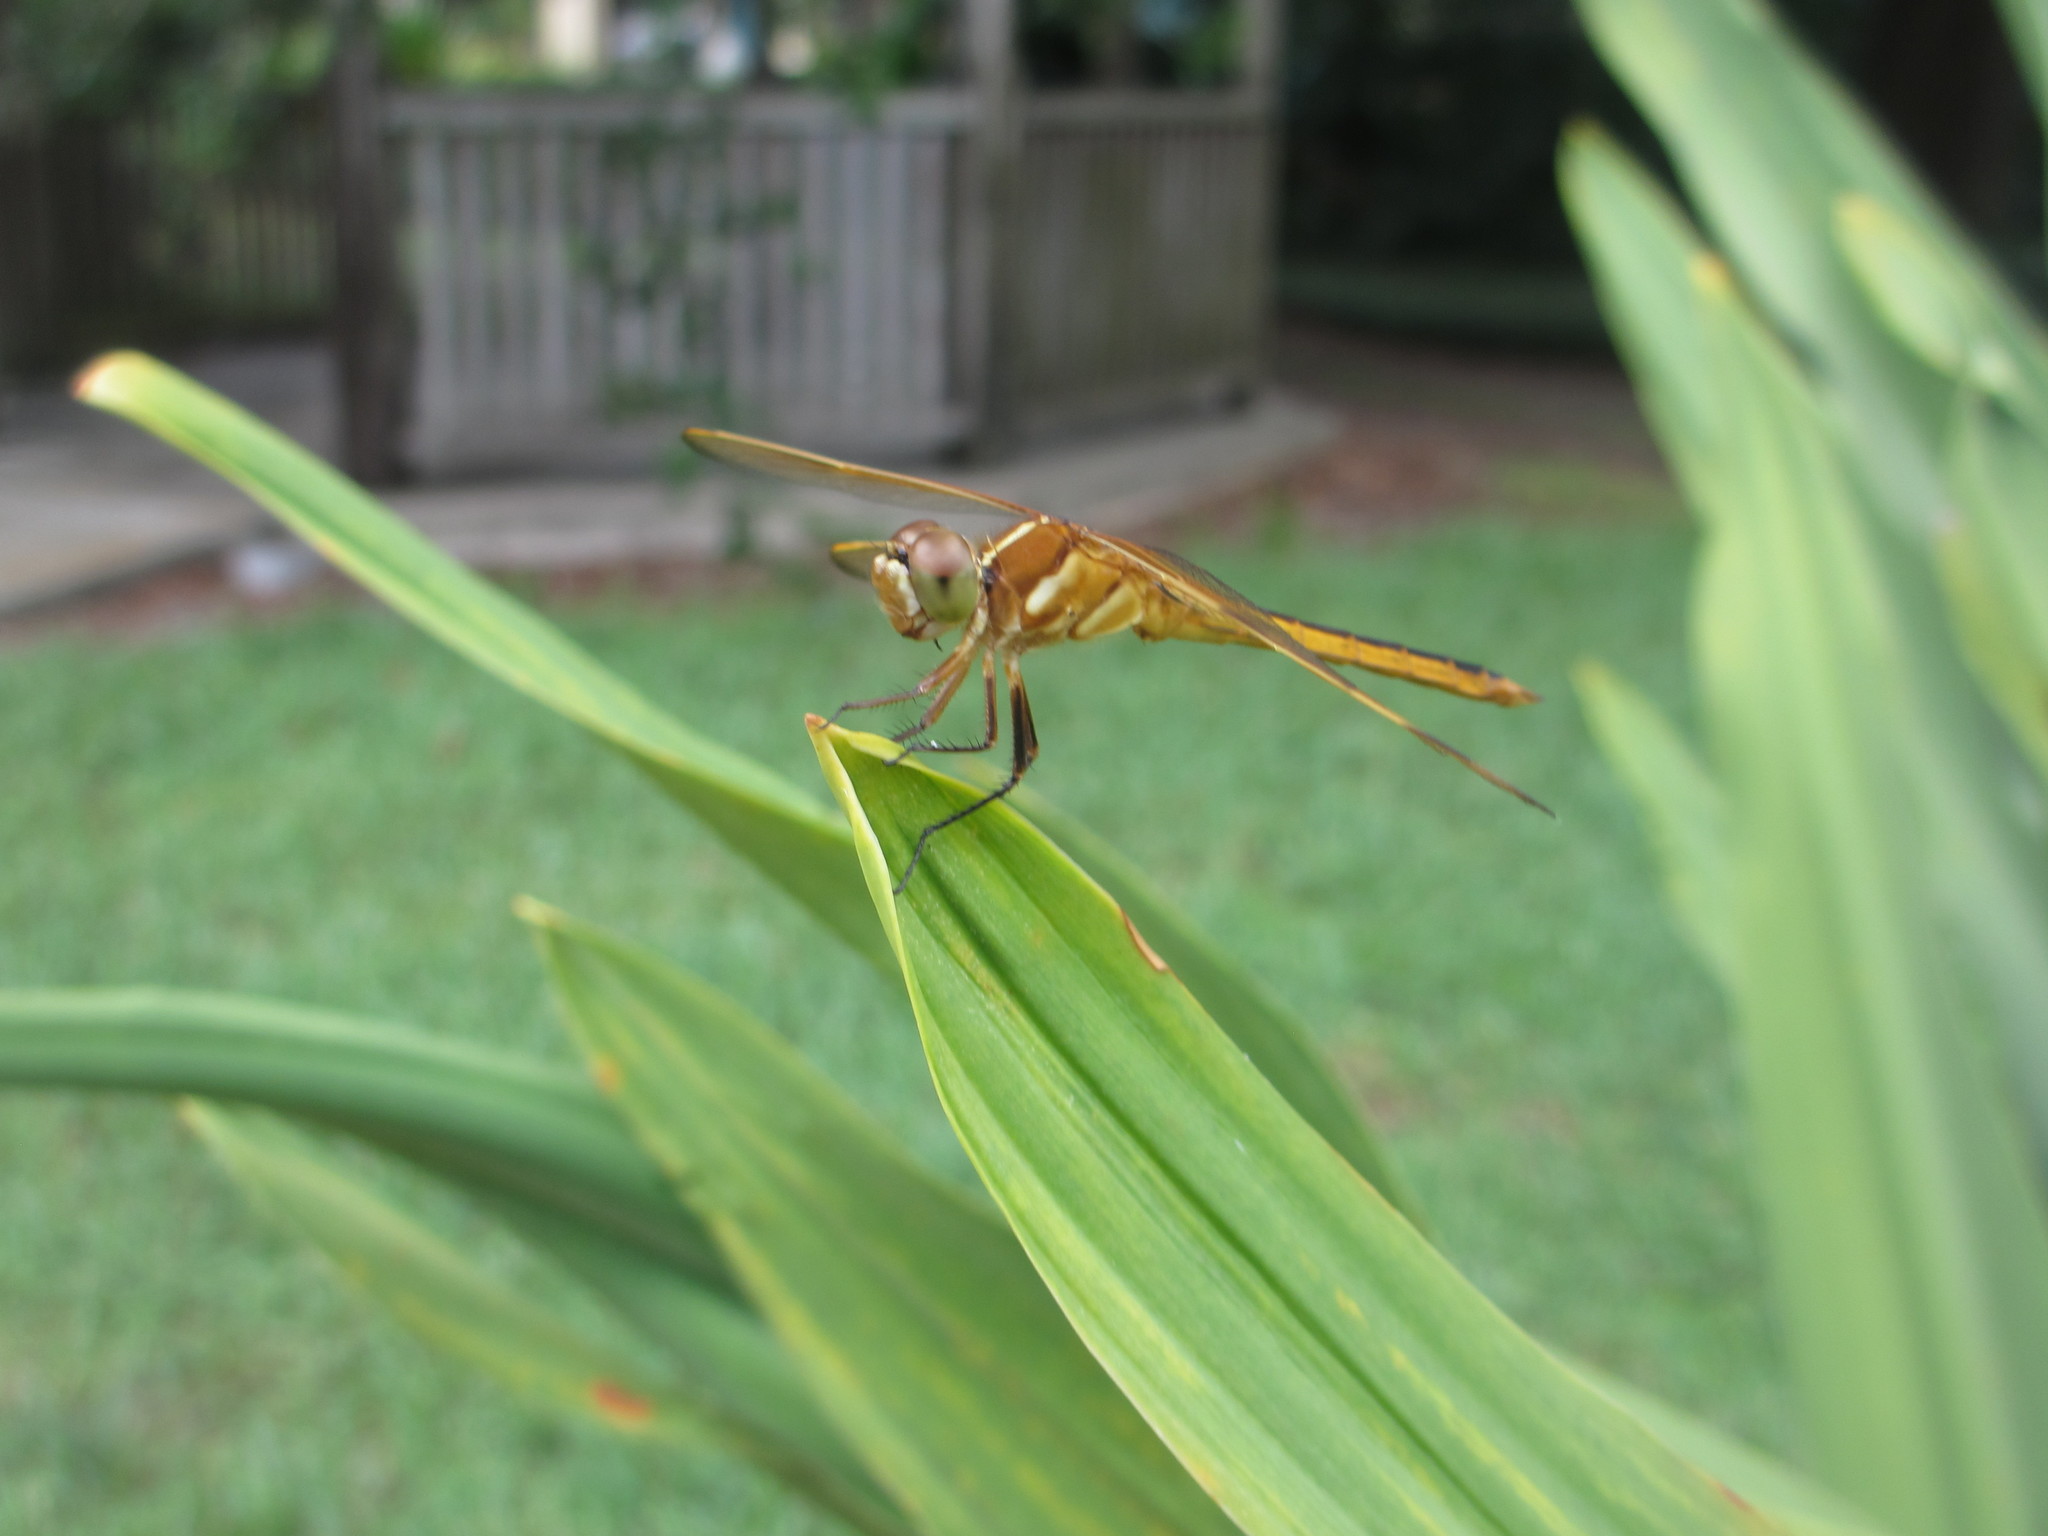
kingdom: Animalia
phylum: Arthropoda
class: Insecta
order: Odonata
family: Libellulidae
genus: Libellula
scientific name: Libellula auripennis
